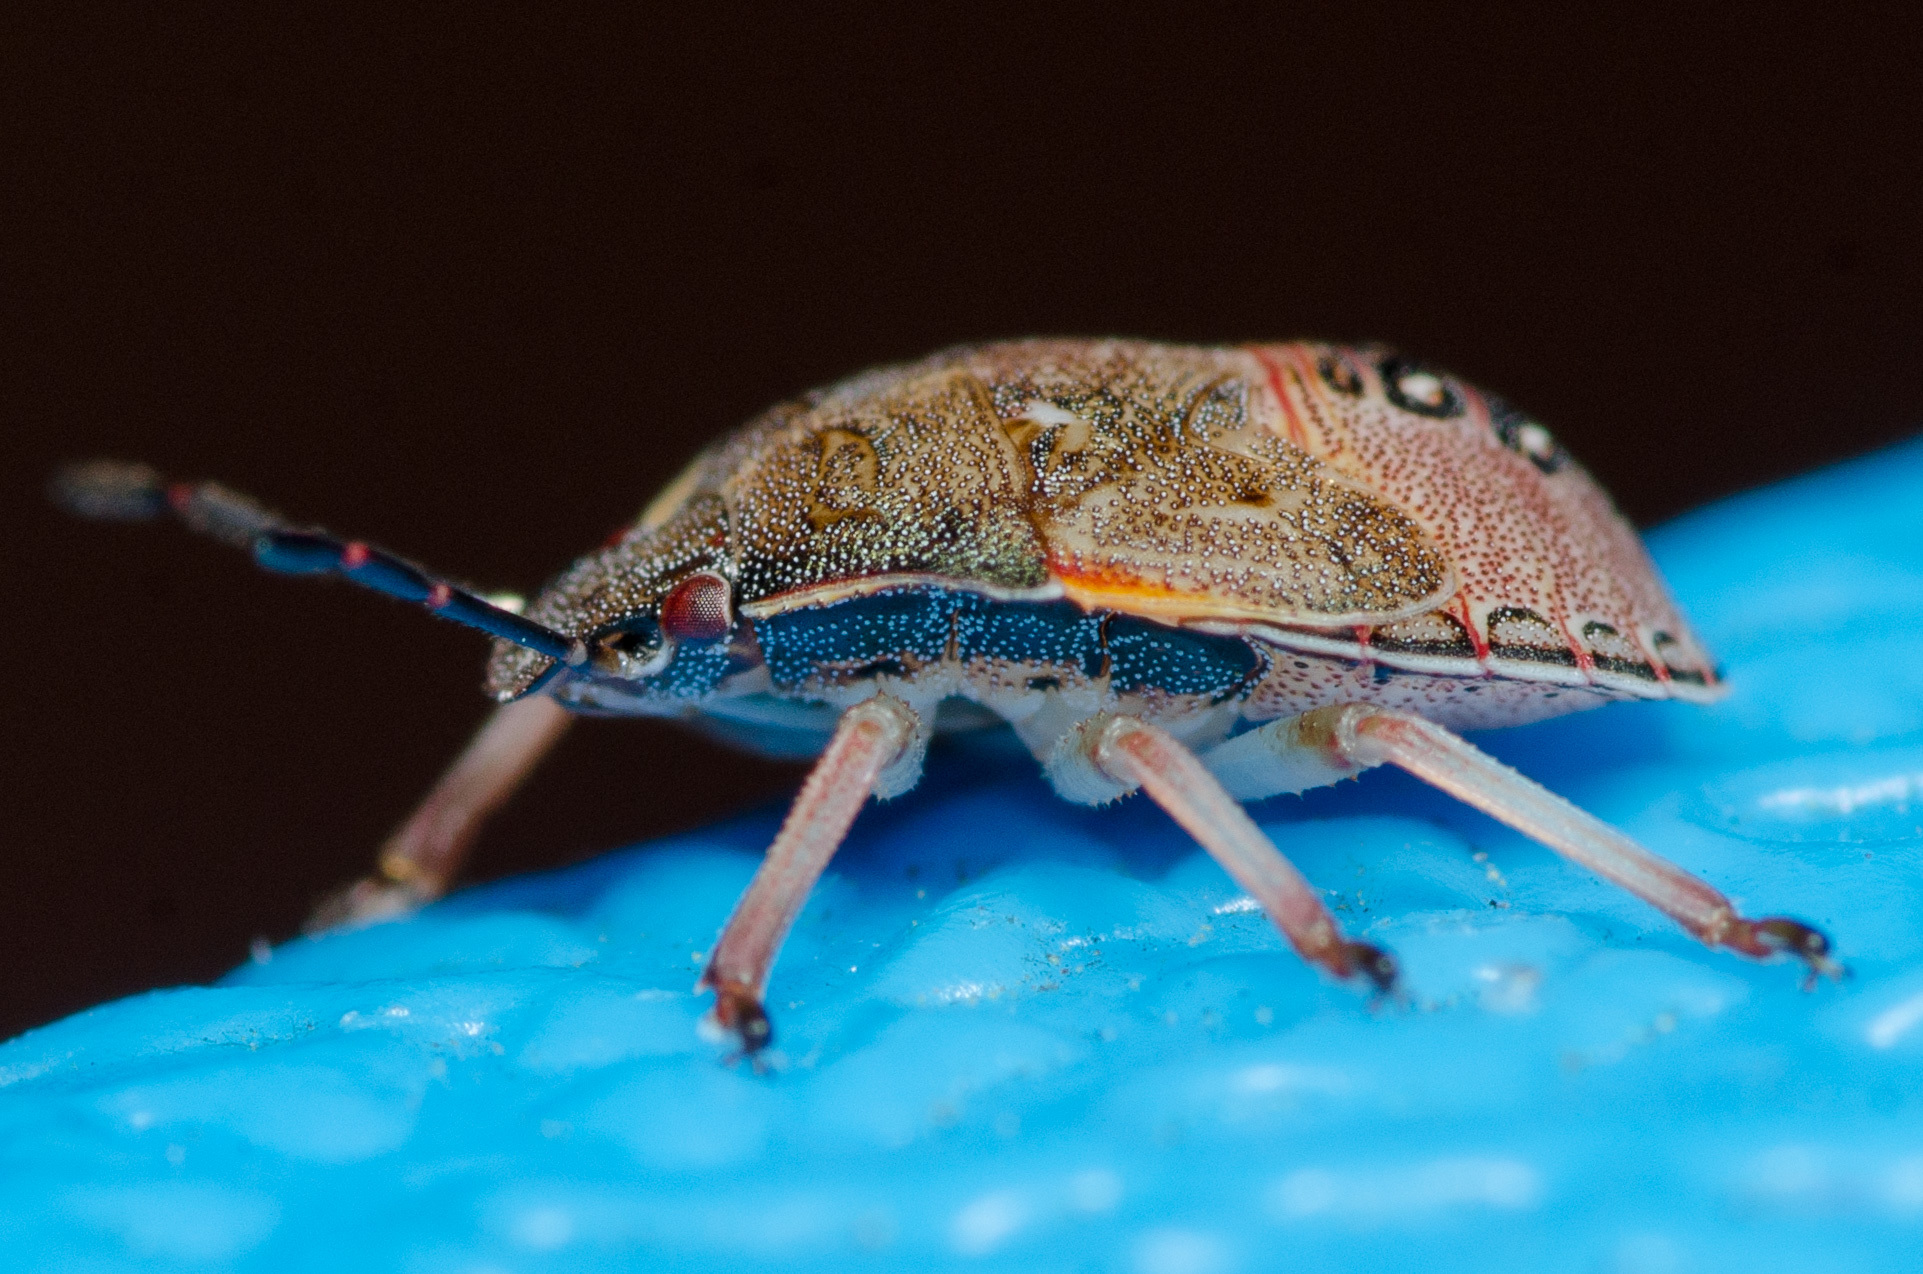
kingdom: Animalia
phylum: Arthropoda
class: Insecta
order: Hemiptera
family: Pentatomidae
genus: Dendrocoris
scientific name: Dendrocoris
